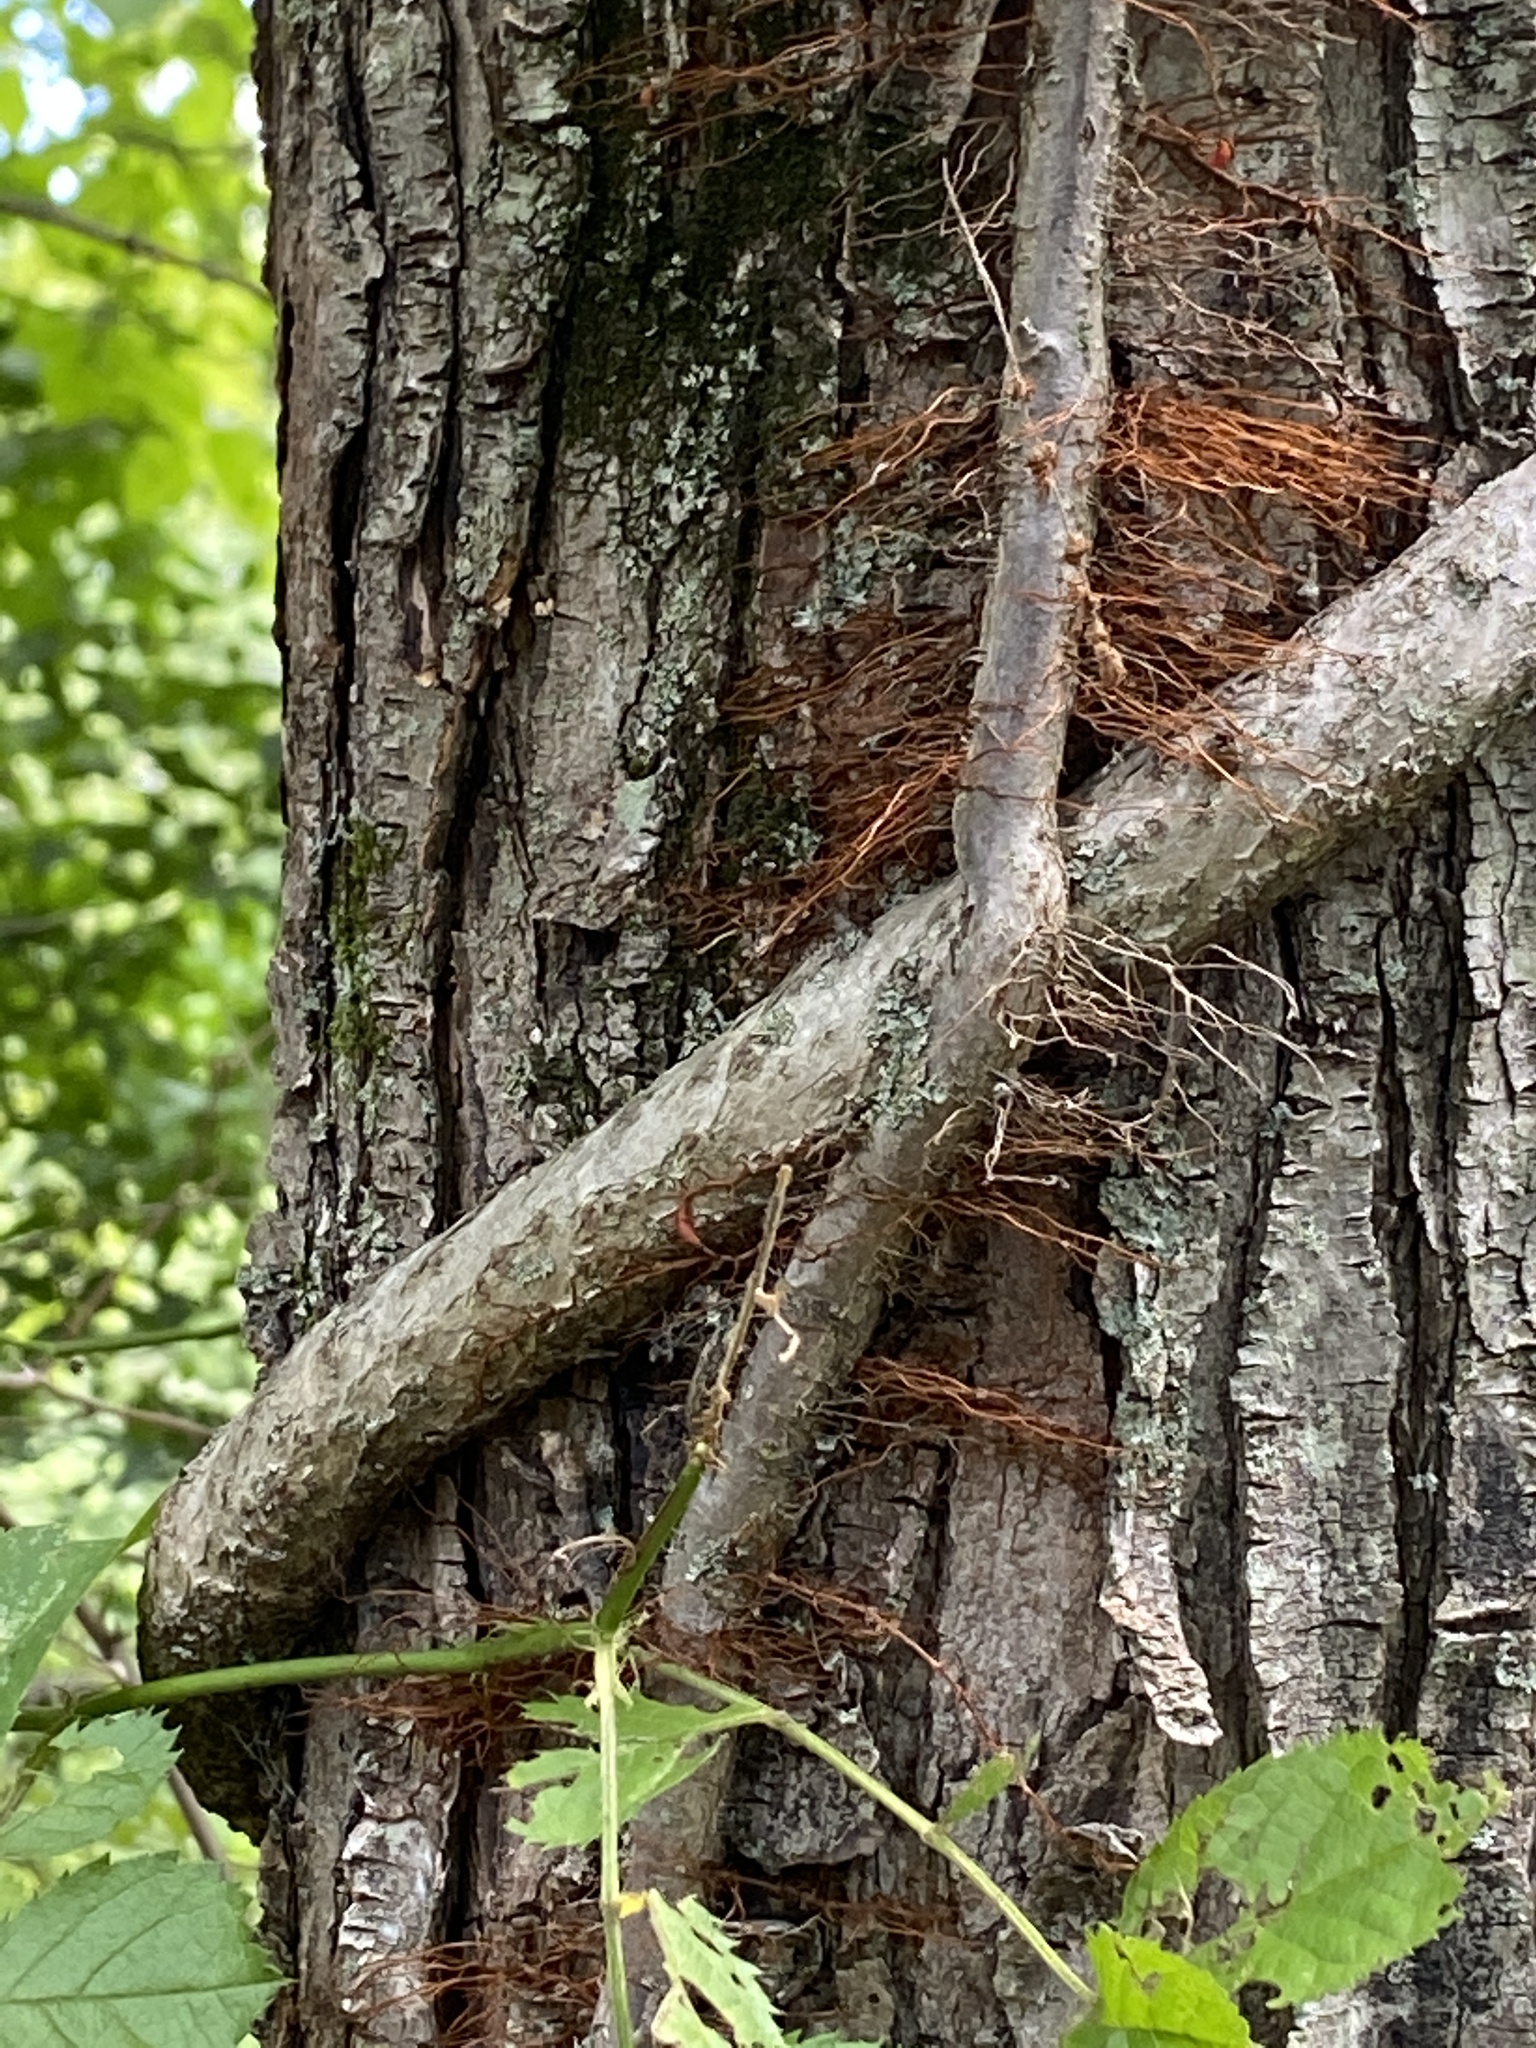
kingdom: Plantae
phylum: Tracheophyta
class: Magnoliopsida
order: Celastrales
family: Celastraceae
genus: Celastrus
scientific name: Celastrus orbiculatus
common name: Oriental bittersweet
